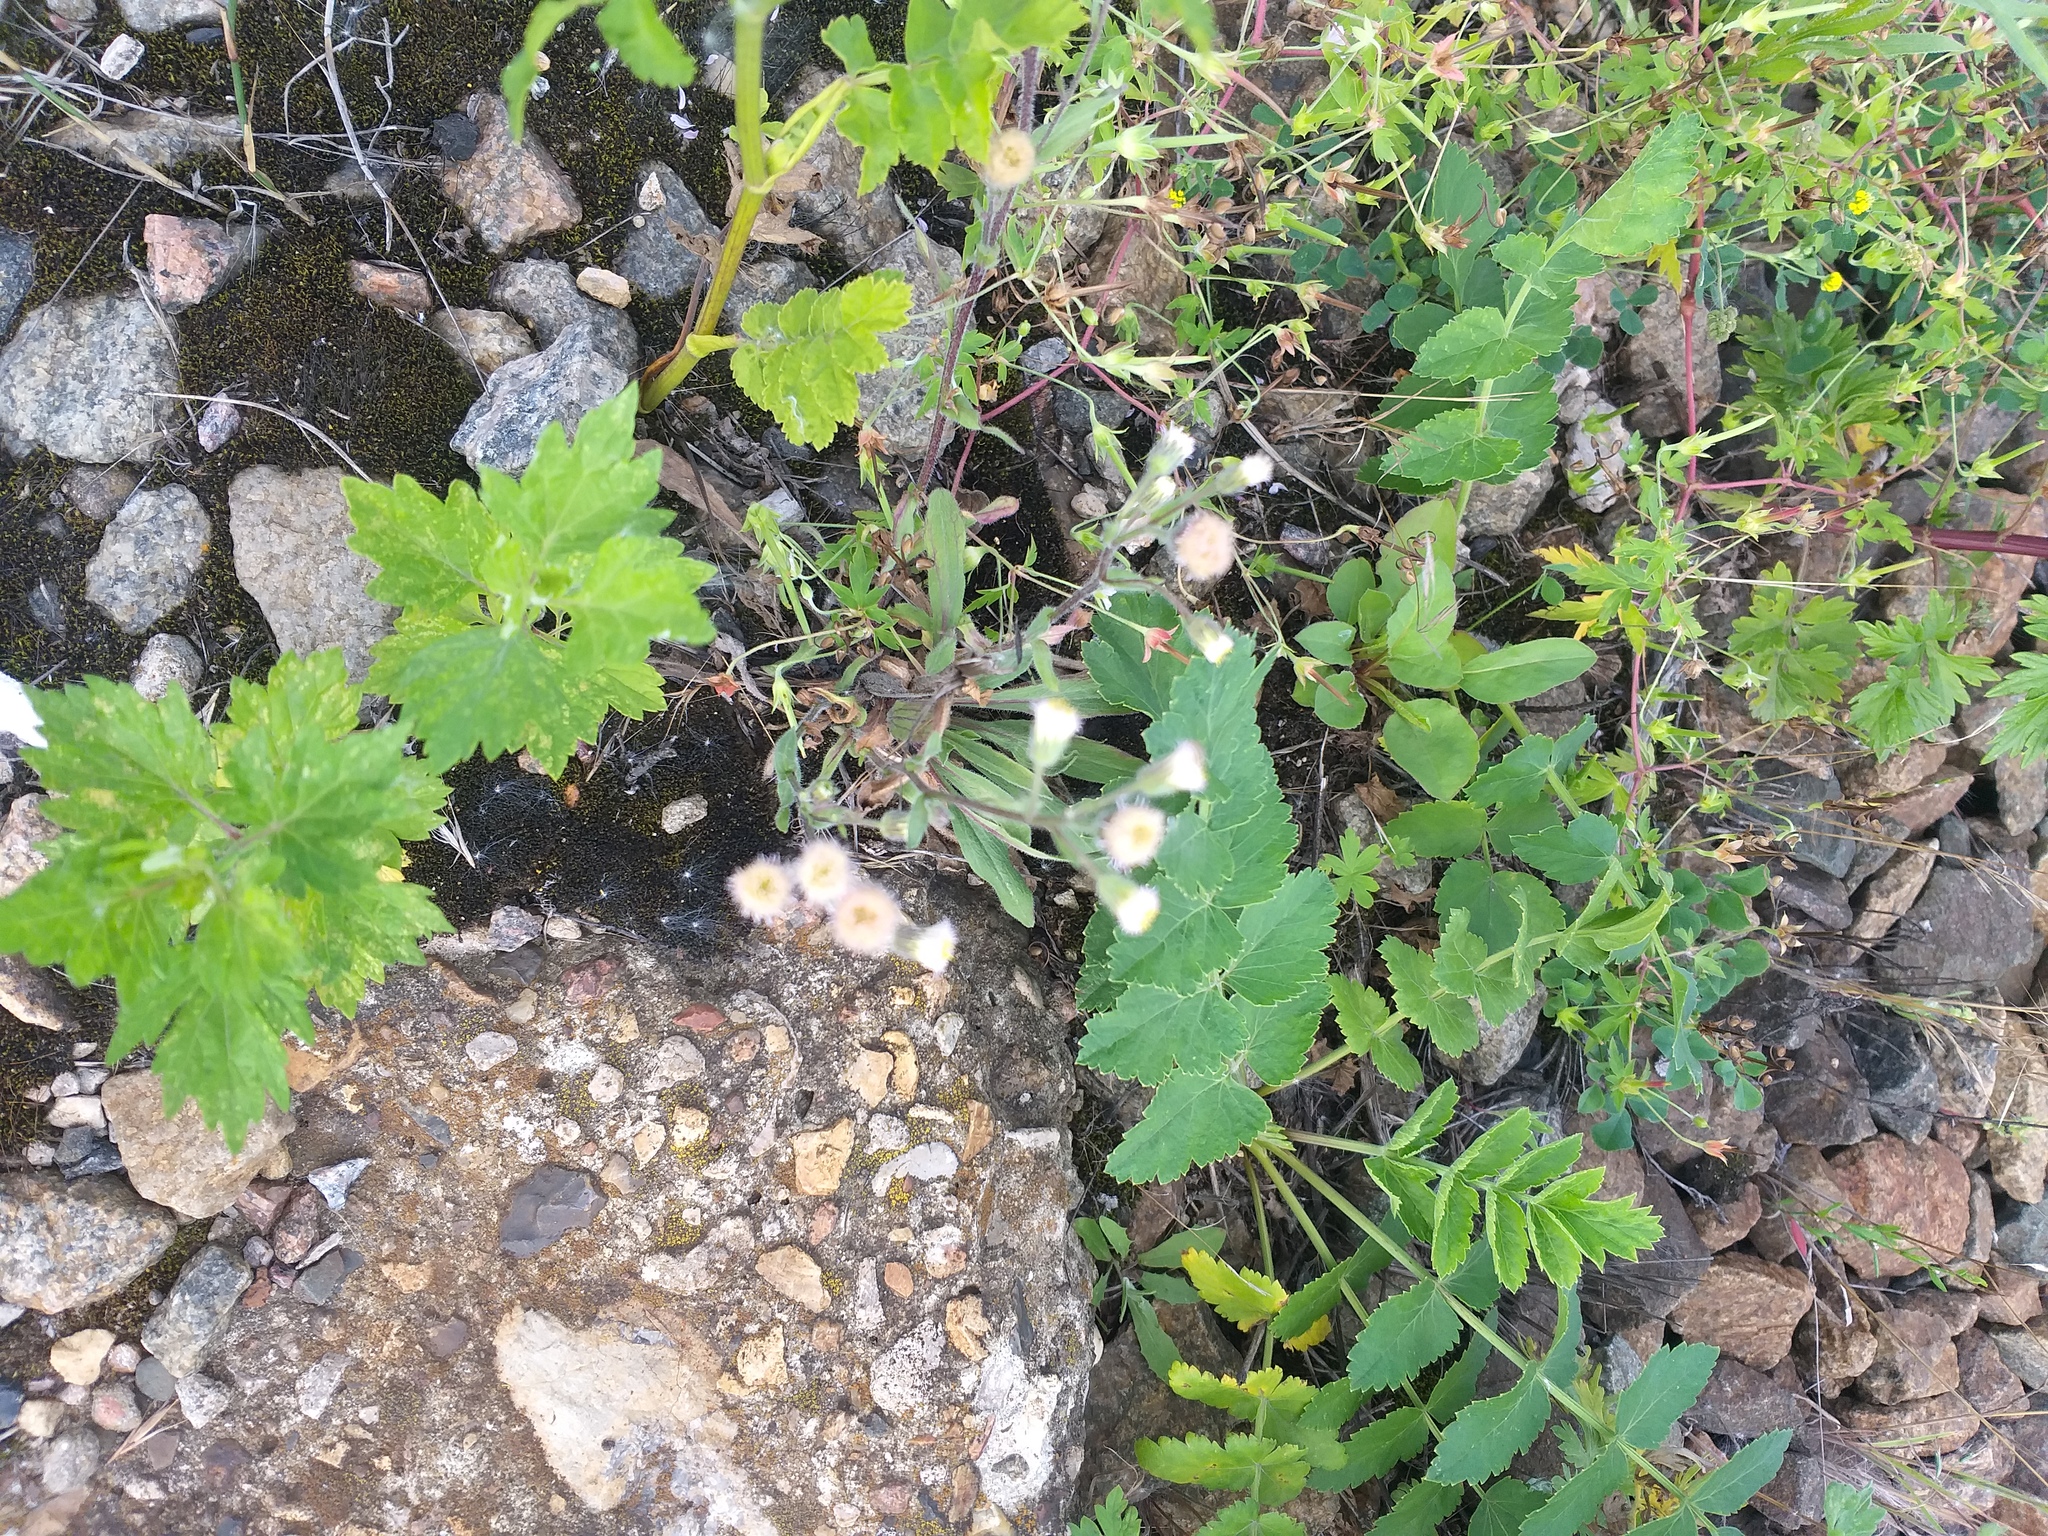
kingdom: Plantae
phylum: Tracheophyta
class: Magnoliopsida
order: Asterales
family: Asteraceae
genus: Erigeron
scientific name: Erigeron acris
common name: Blue fleabane
